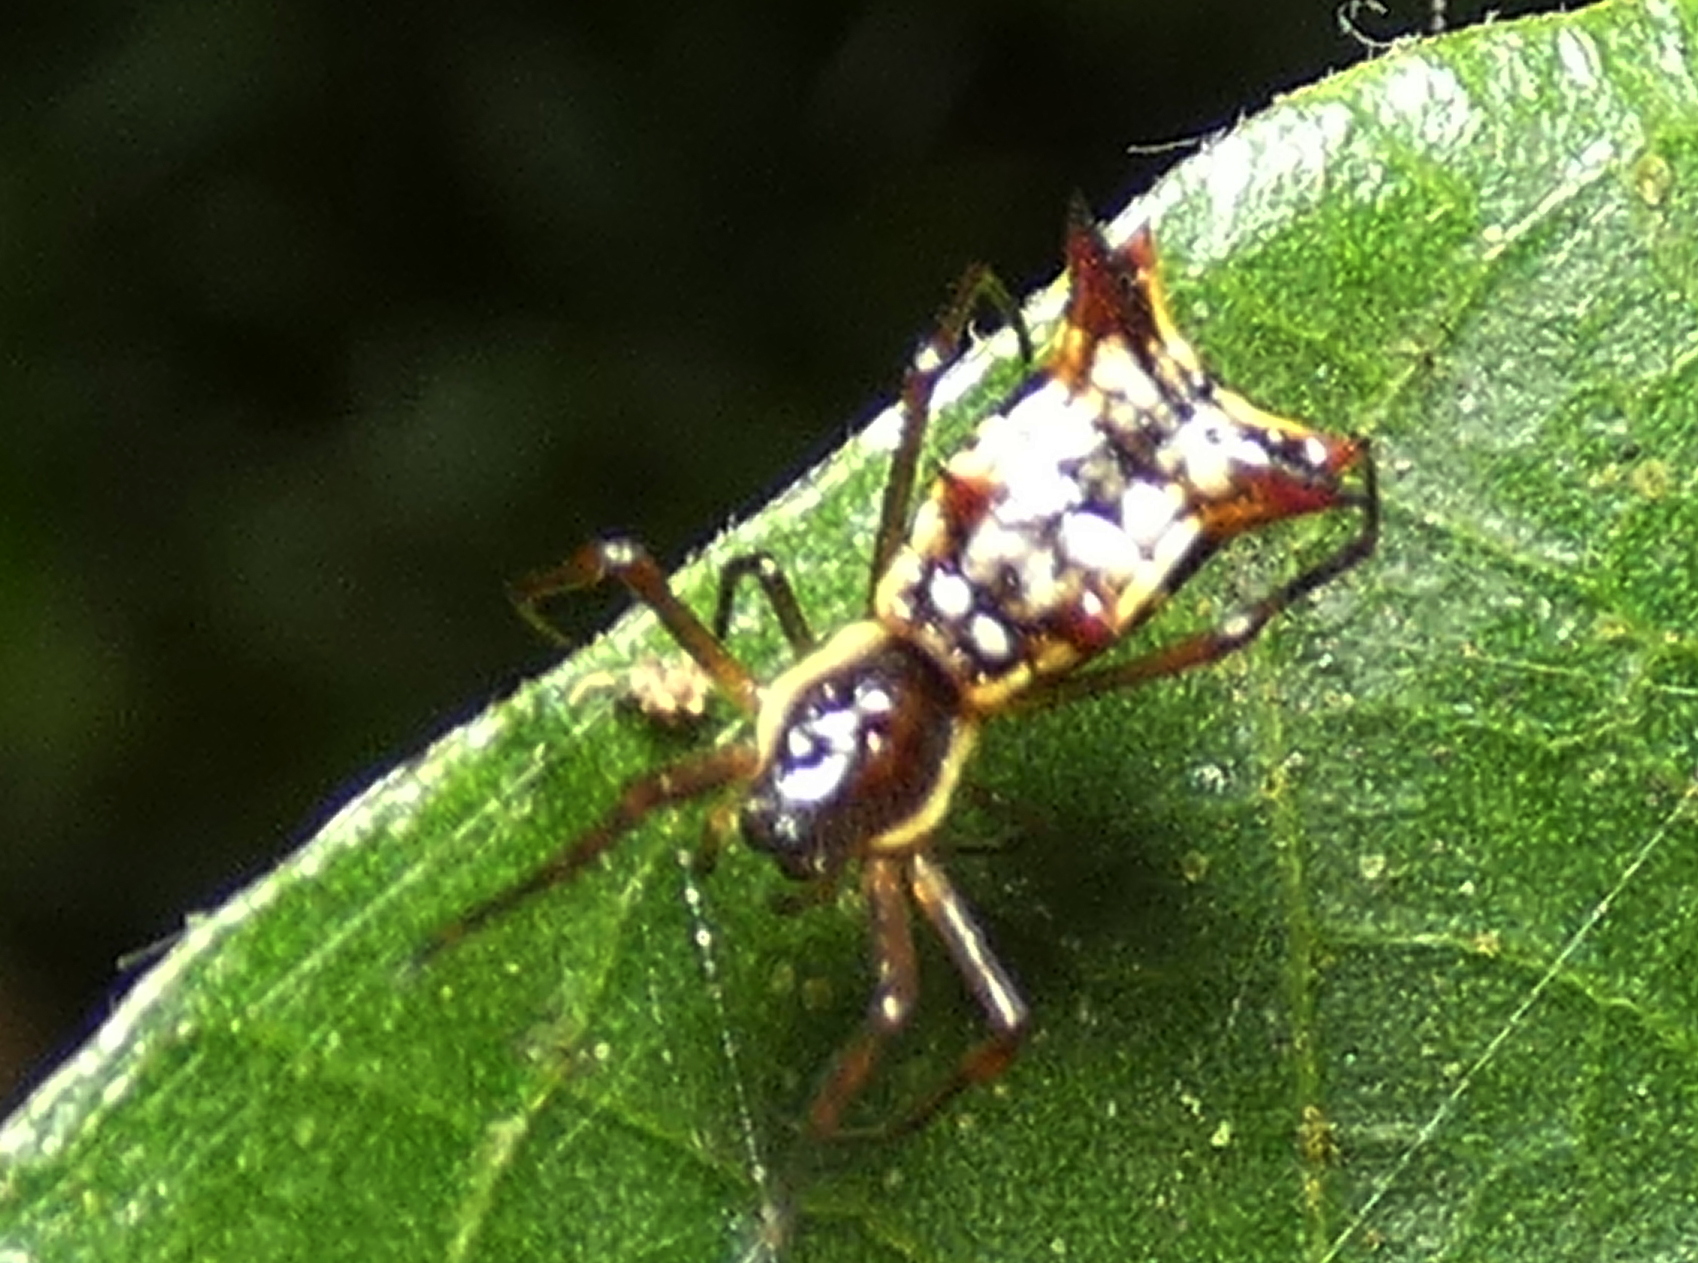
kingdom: Animalia
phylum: Arthropoda
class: Arachnida
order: Araneae
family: Araneidae
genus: Micrathena
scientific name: Micrathena fissispina
